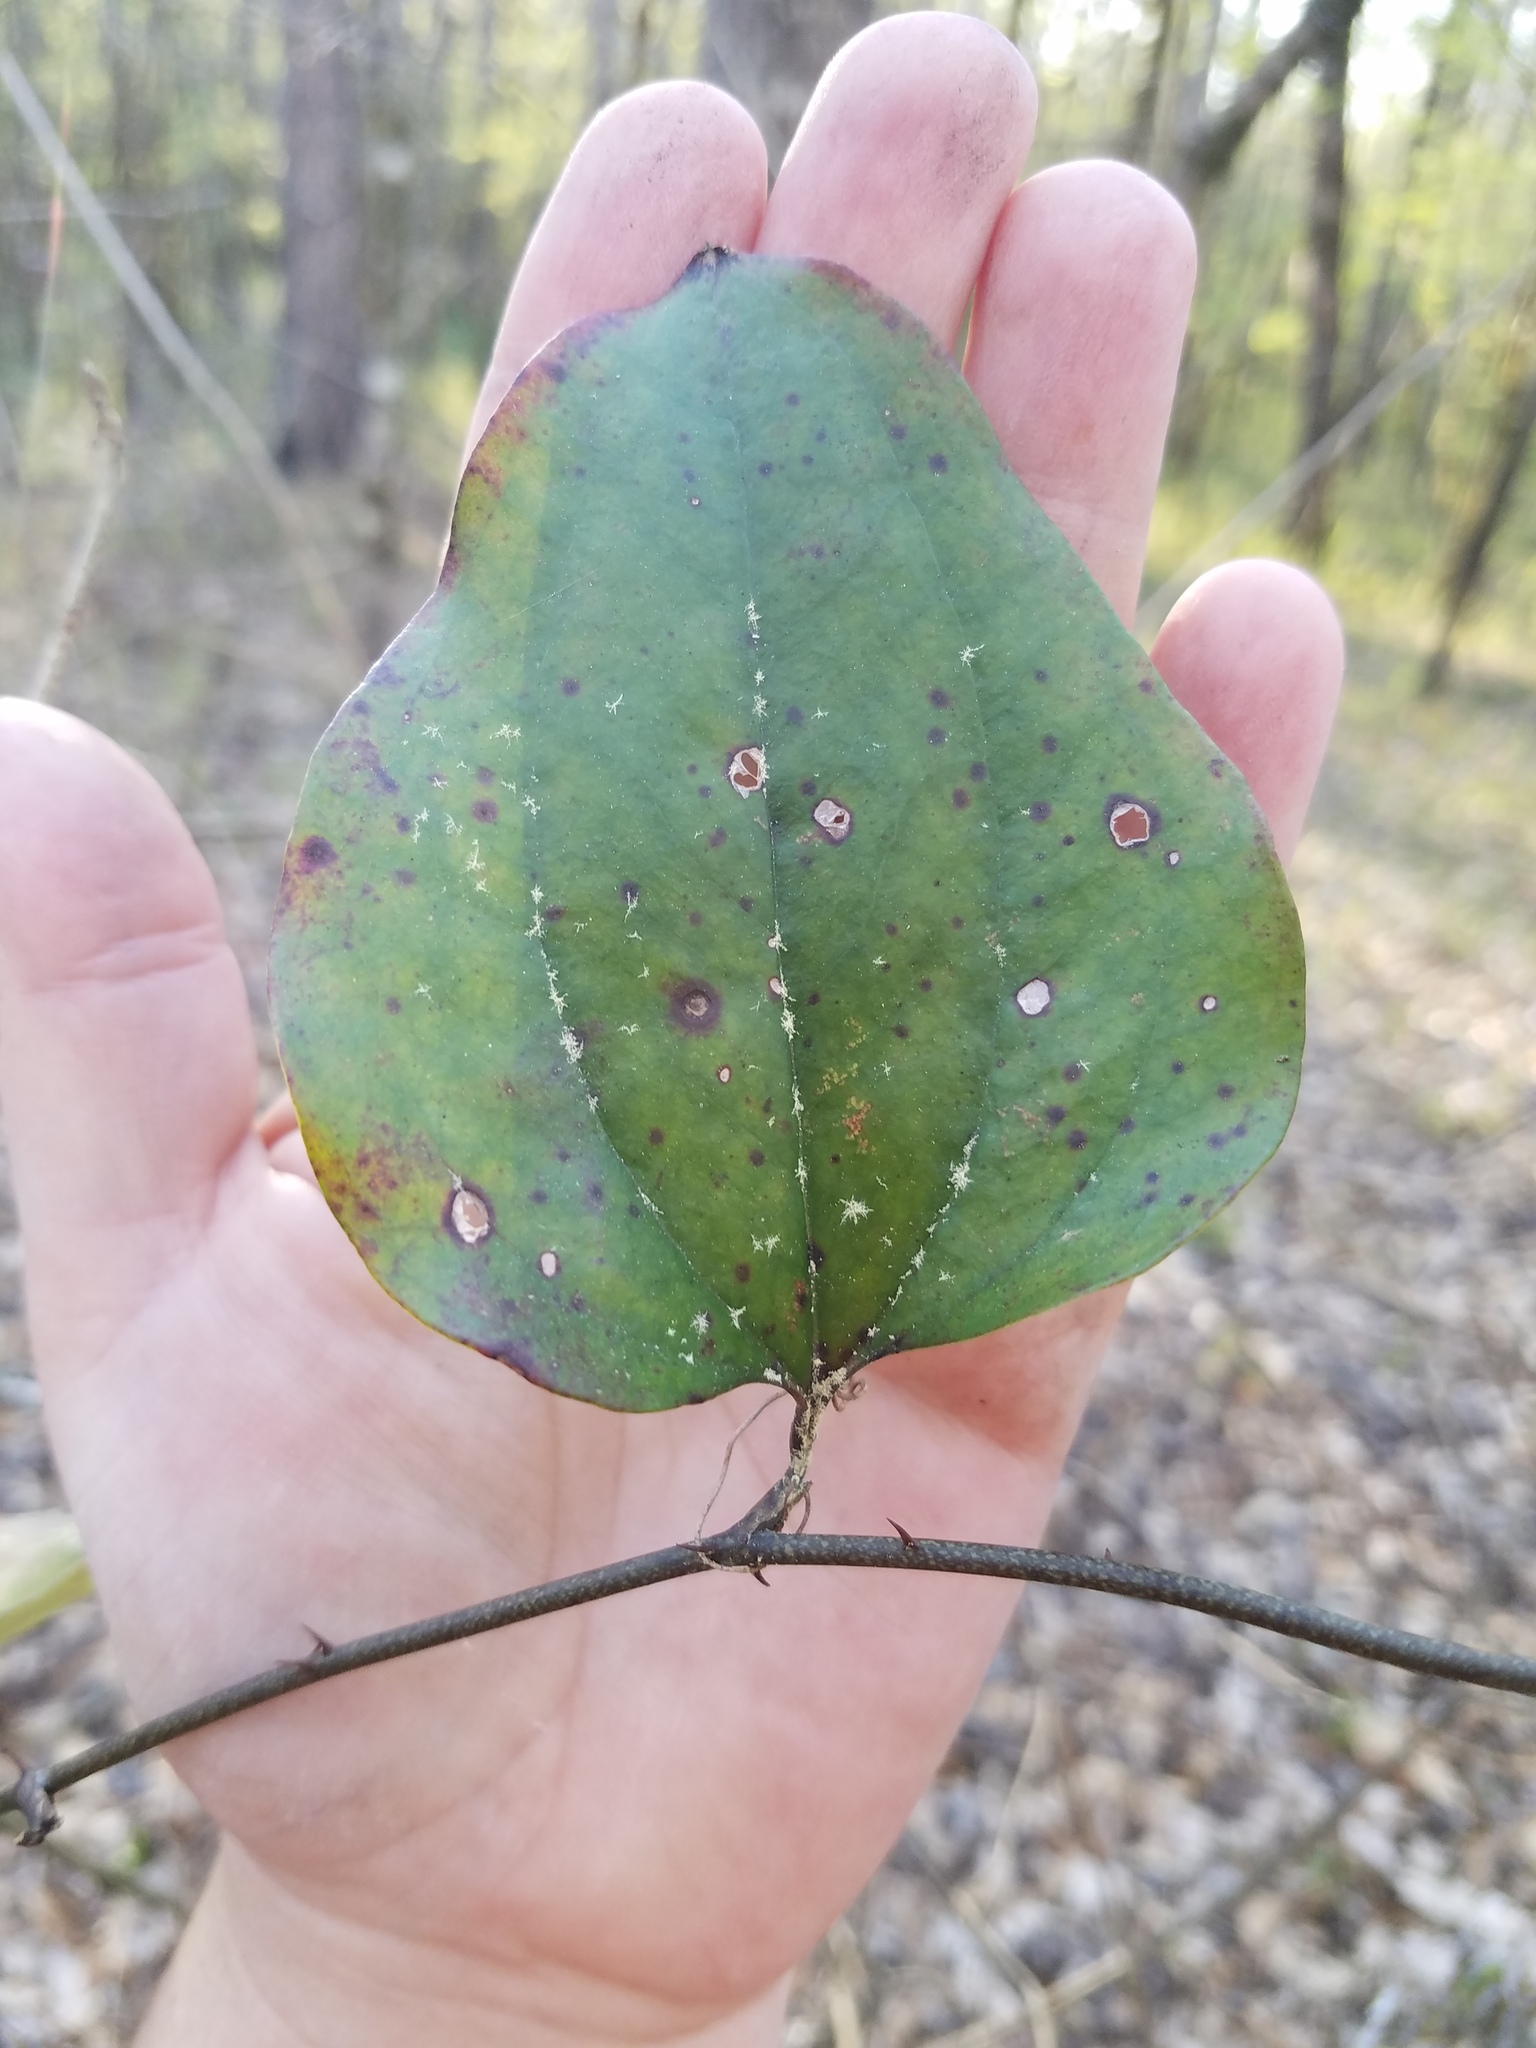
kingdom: Plantae
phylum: Tracheophyta
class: Liliopsida
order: Liliales
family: Smilacaceae
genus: Smilax
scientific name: Smilax glauca
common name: Cat greenbrier
